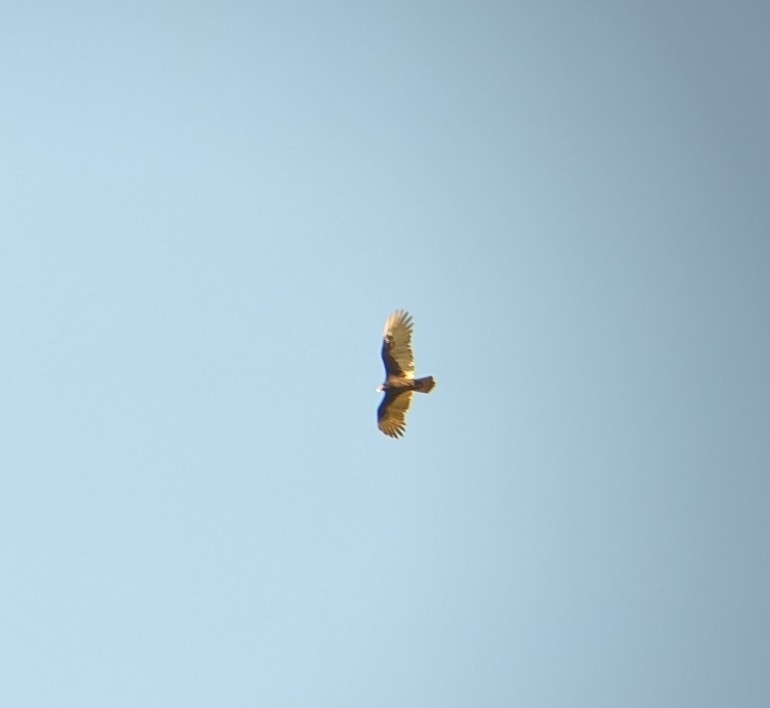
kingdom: Animalia
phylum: Chordata
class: Aves
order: Accipitriformes
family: Cathartidae
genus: Cathartes
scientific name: Cathartes aura
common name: Turkey vulture
